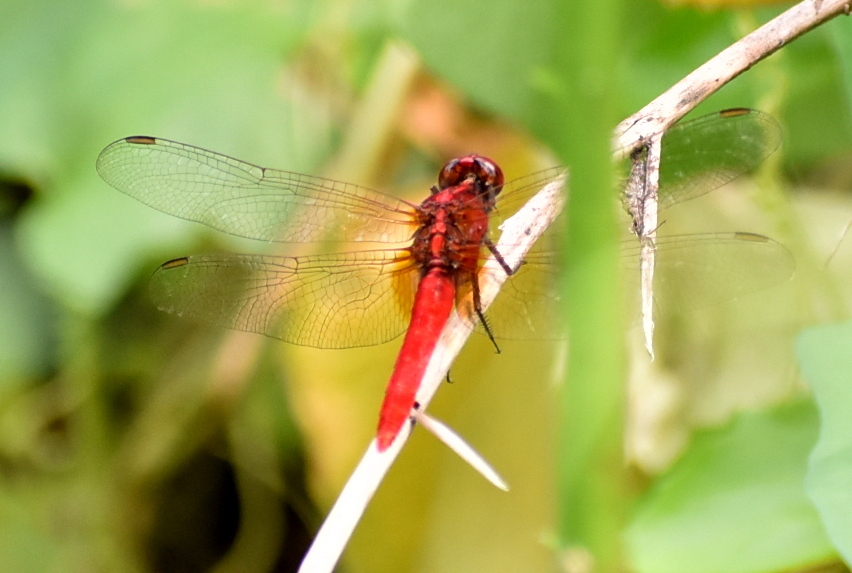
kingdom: Animalia
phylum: Arthropoda
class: Insecta
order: Odonata
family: Libellulidae
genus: Rhodothemis
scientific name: Rhodothemis rufa
